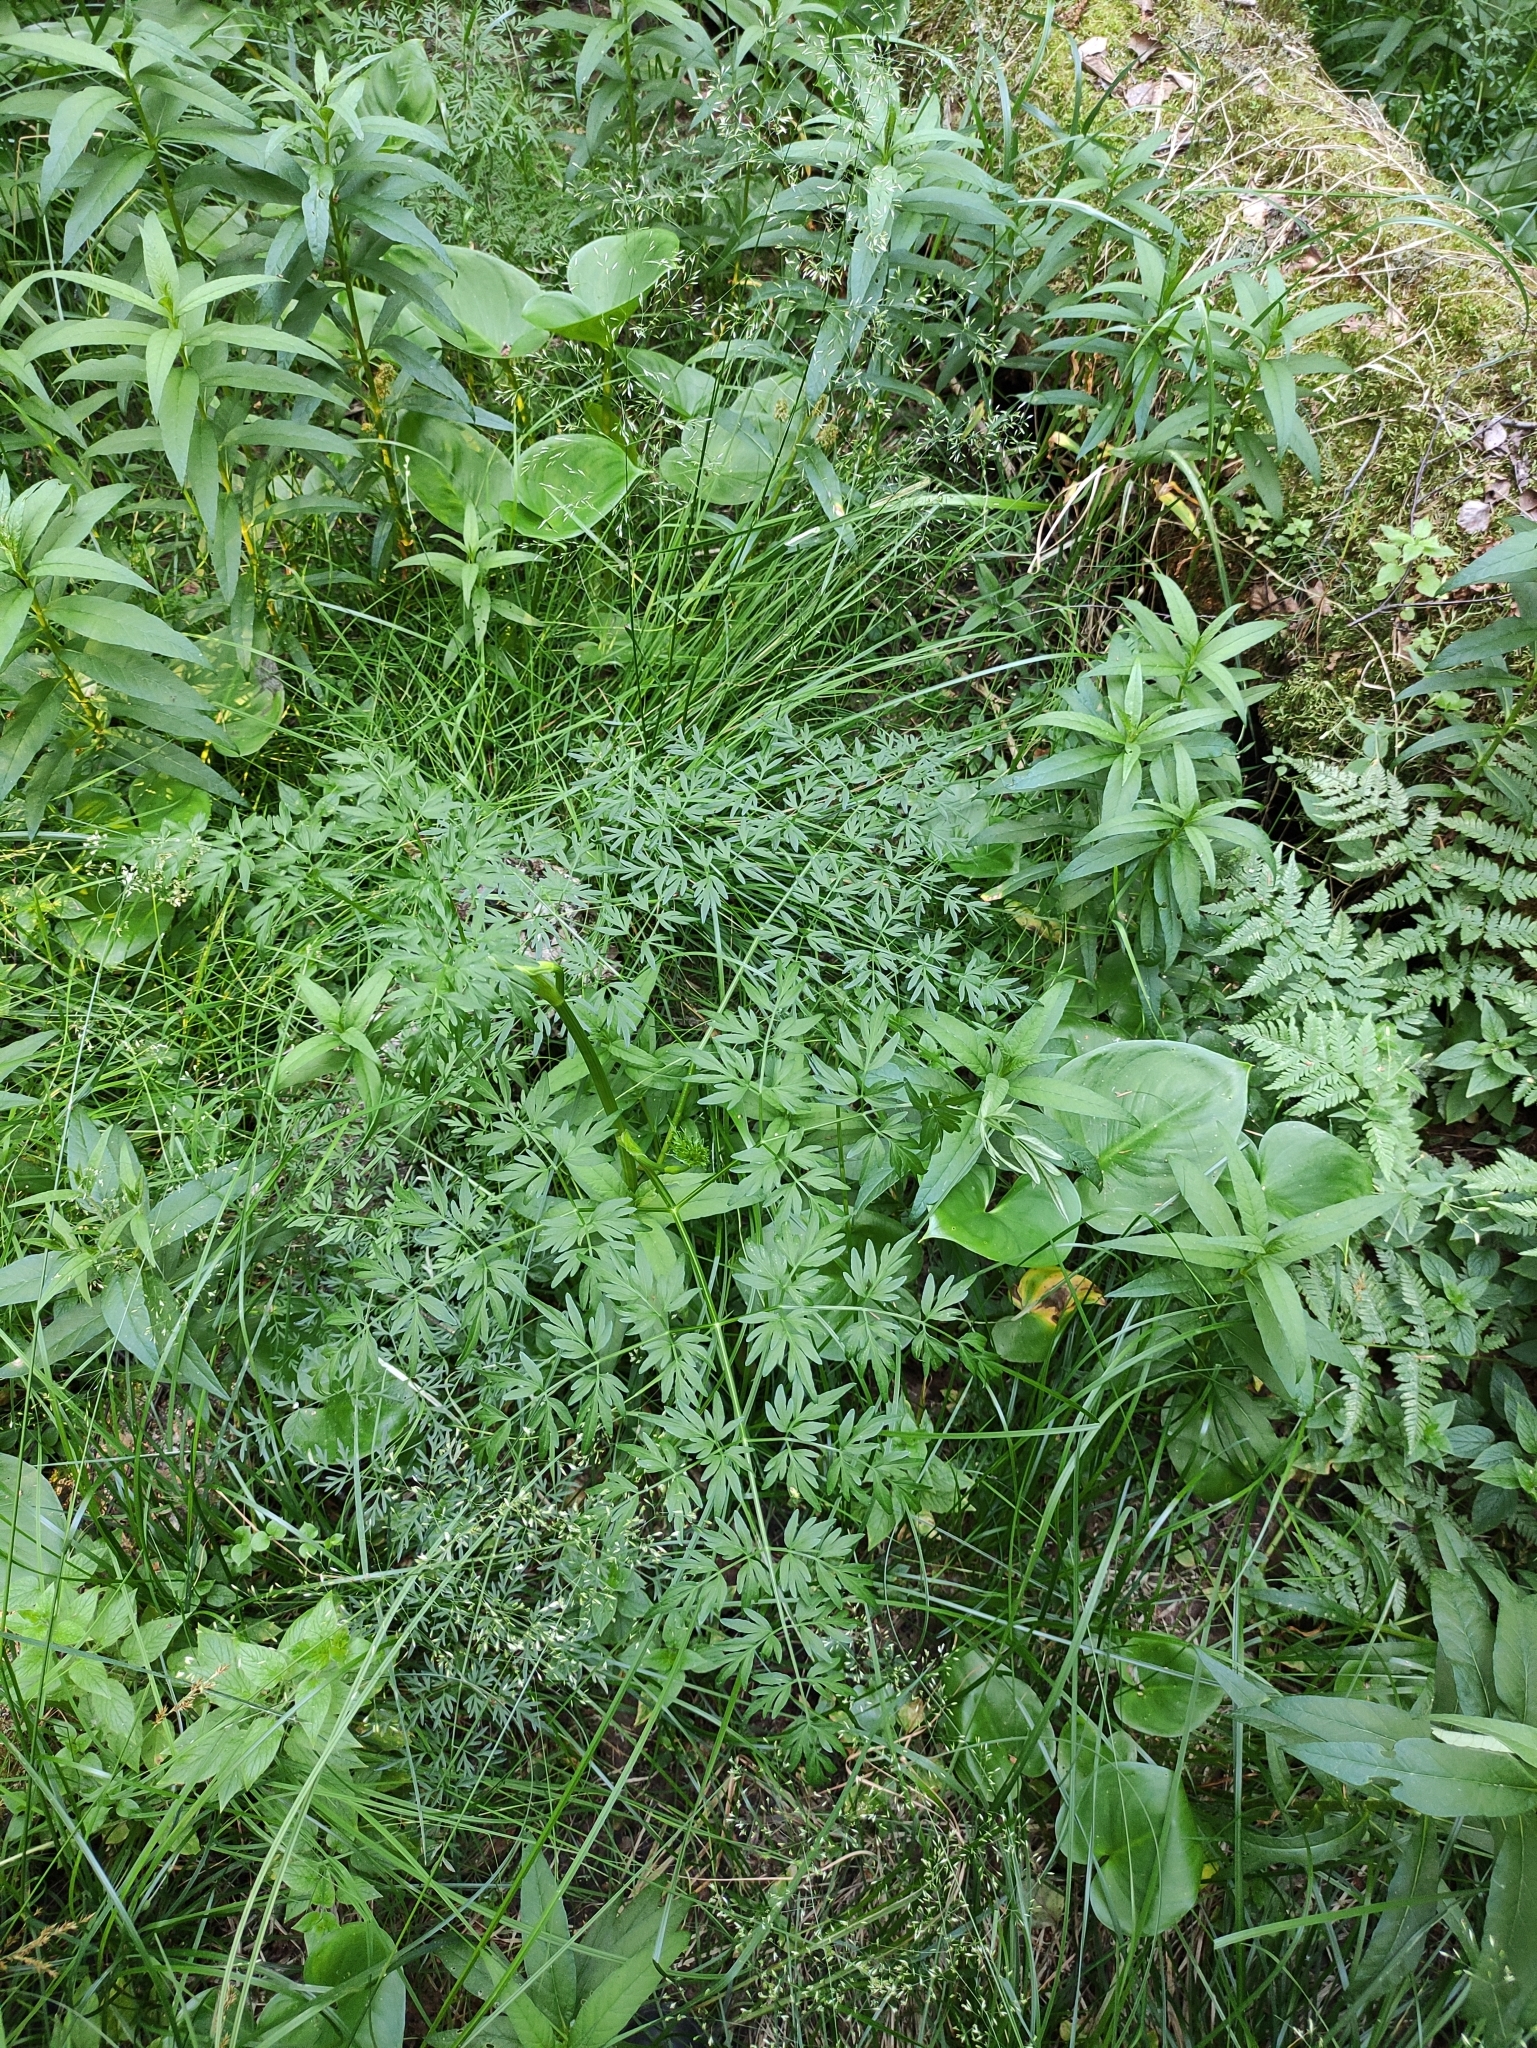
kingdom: Plantae
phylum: Tracheophyta
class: Magnoliopsida
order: Apiales
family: Apiaceae
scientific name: Apiaceae
